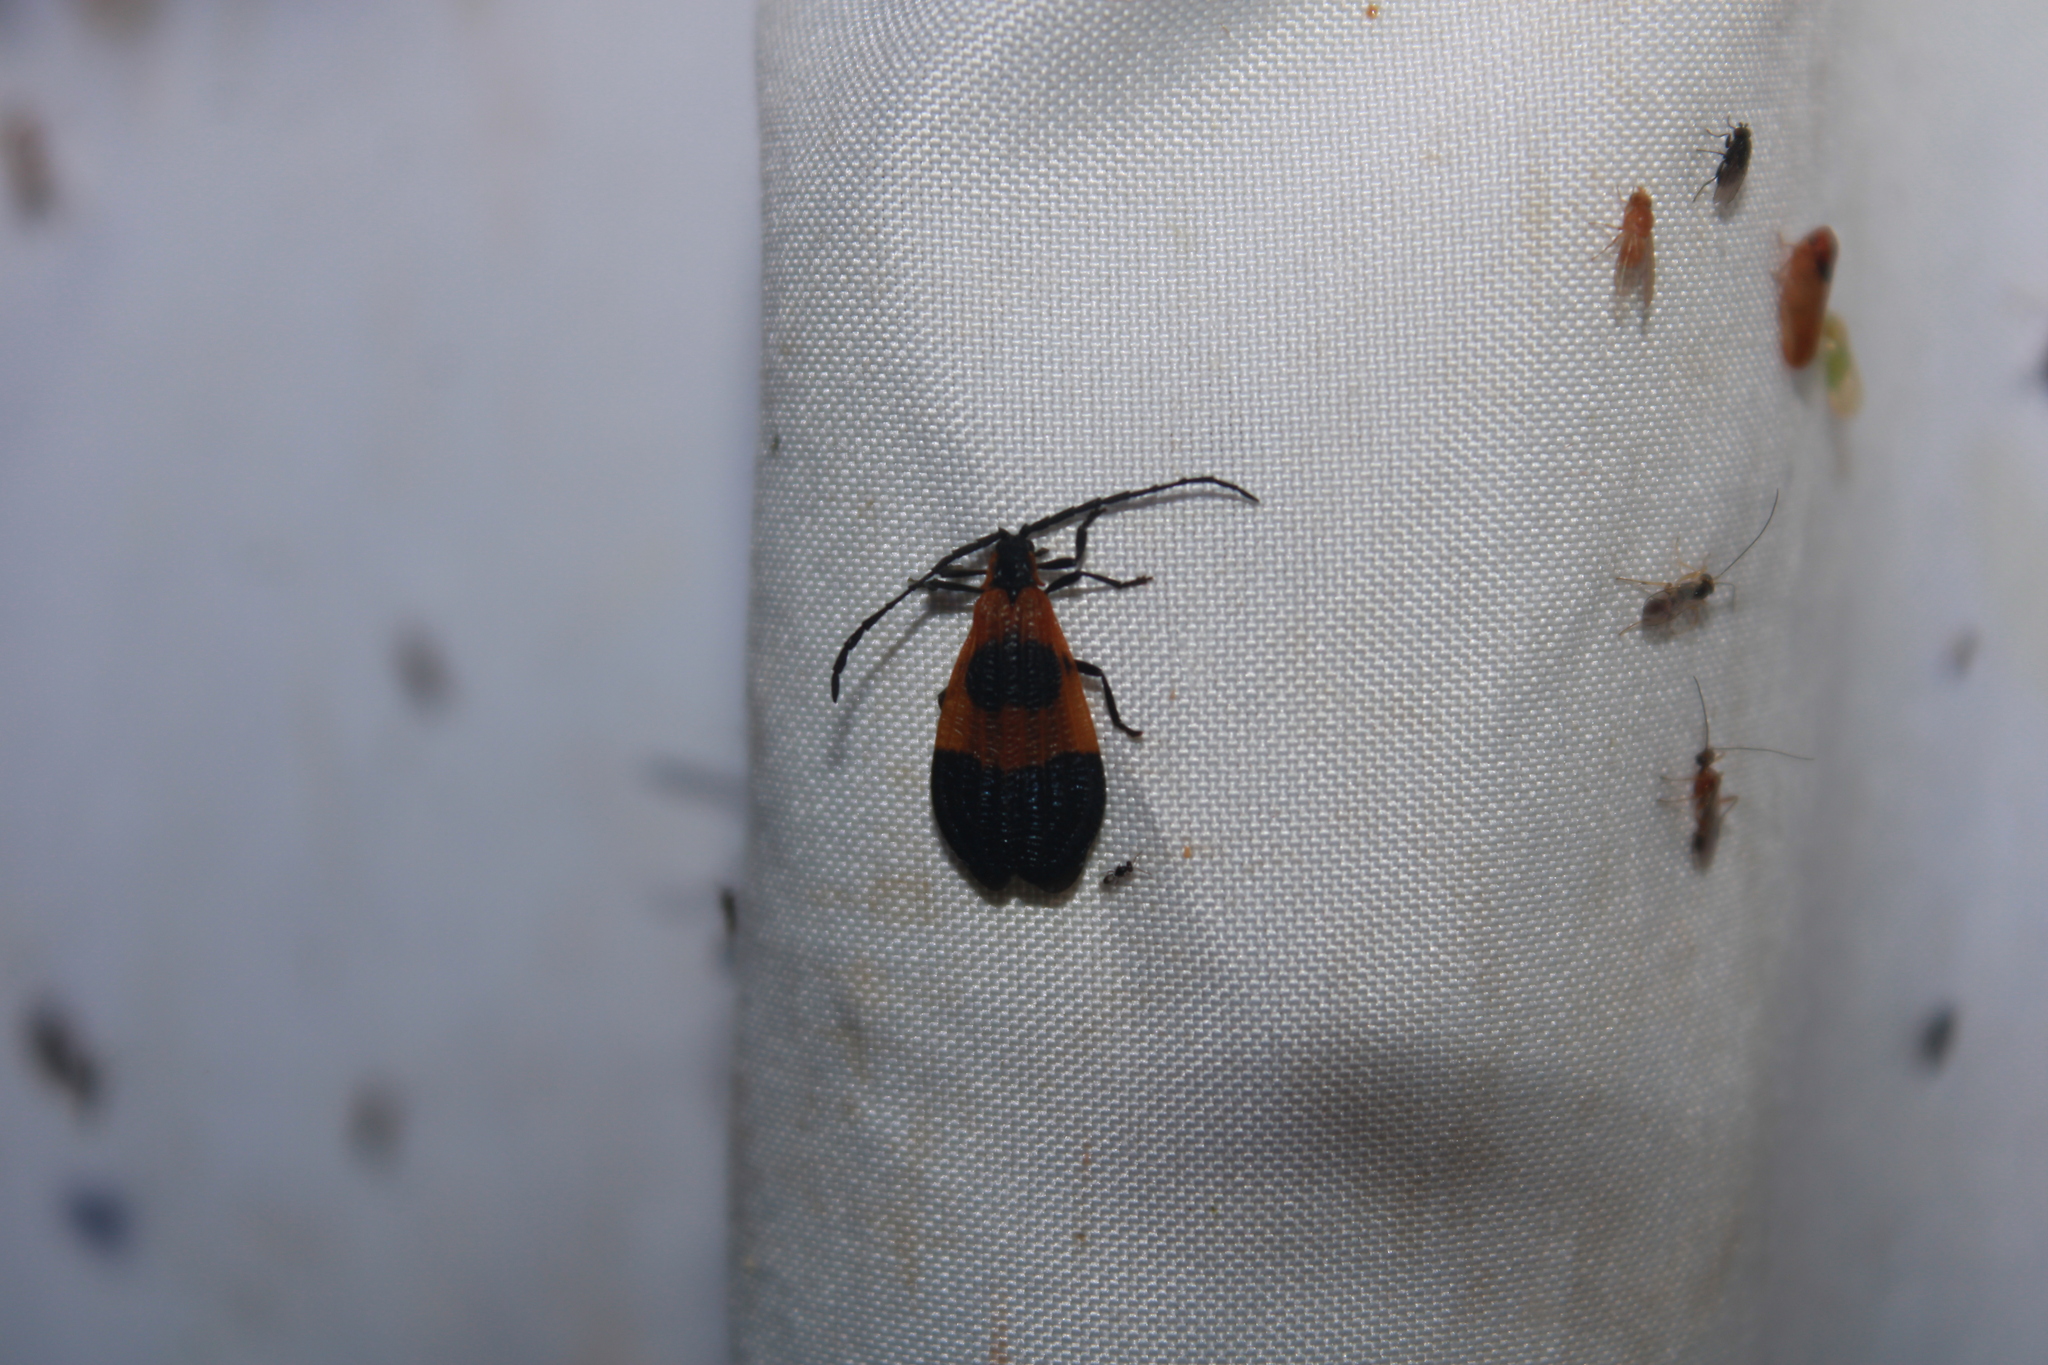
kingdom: Animalia
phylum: Arthropoda
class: Insecta
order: Coleoptera
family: Lycidae
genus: Calopteron
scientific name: Calopteron terminale
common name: End band net-winged beetle
